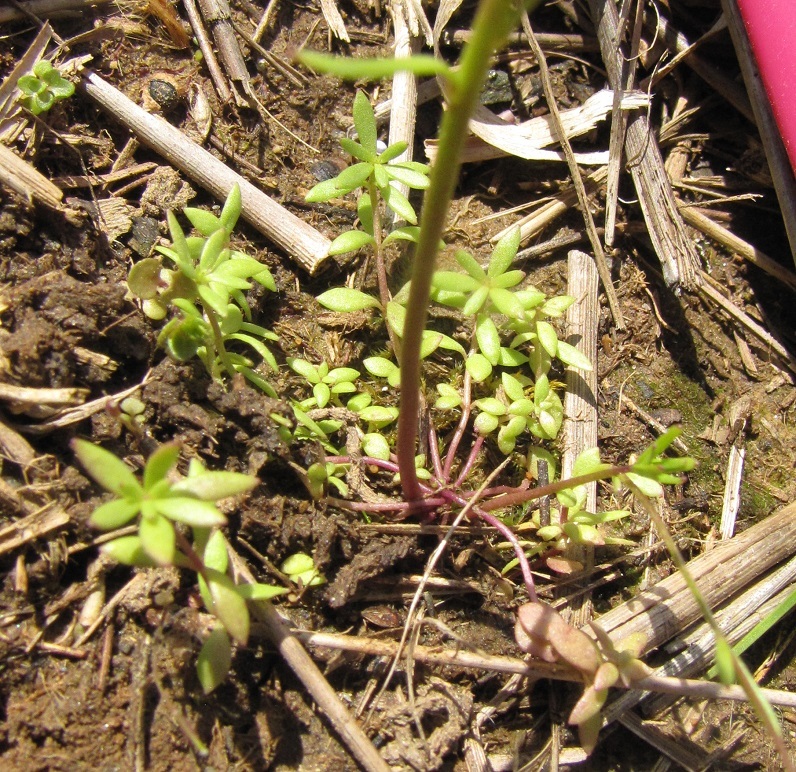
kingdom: Plantae
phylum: Tracheophyta
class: Magnoliopsida
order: Lamiales
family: Plantaginaceae
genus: Nuttallanthus
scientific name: Nuttallanthus canadensis
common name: Blue toadflax
